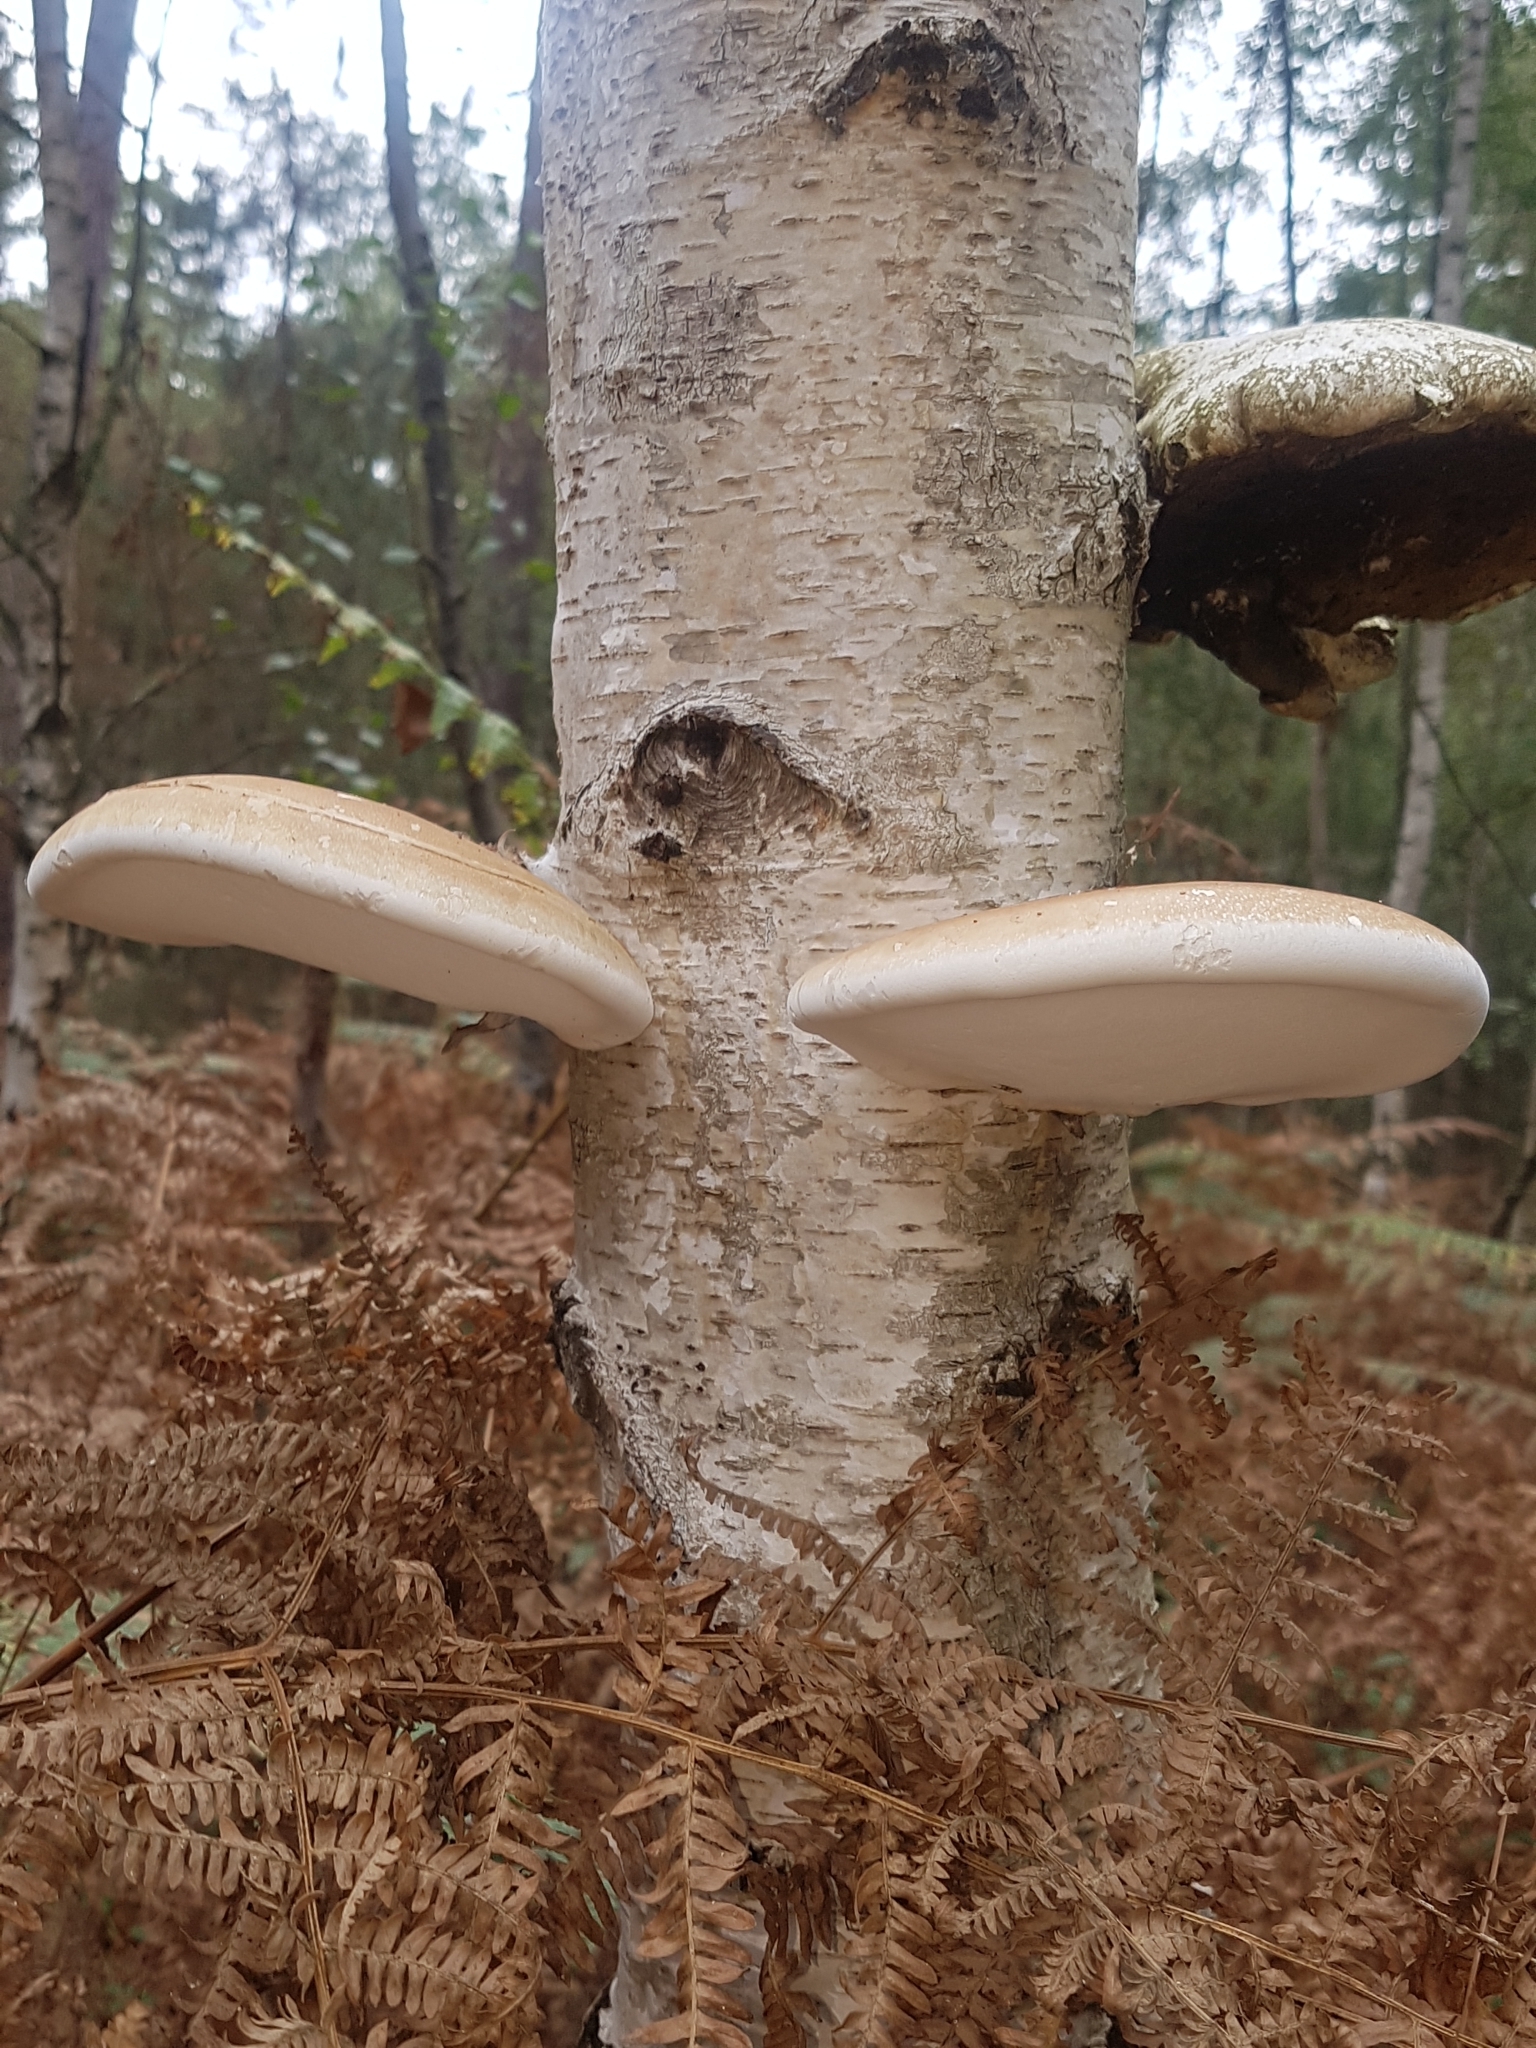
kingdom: Fungi
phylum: Basidiomycota
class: Agaricomycetes
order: Polyporales
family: Fomitopsidaceae
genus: Fomitopsis
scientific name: Fomitopsis betulina
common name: Birch polypore
